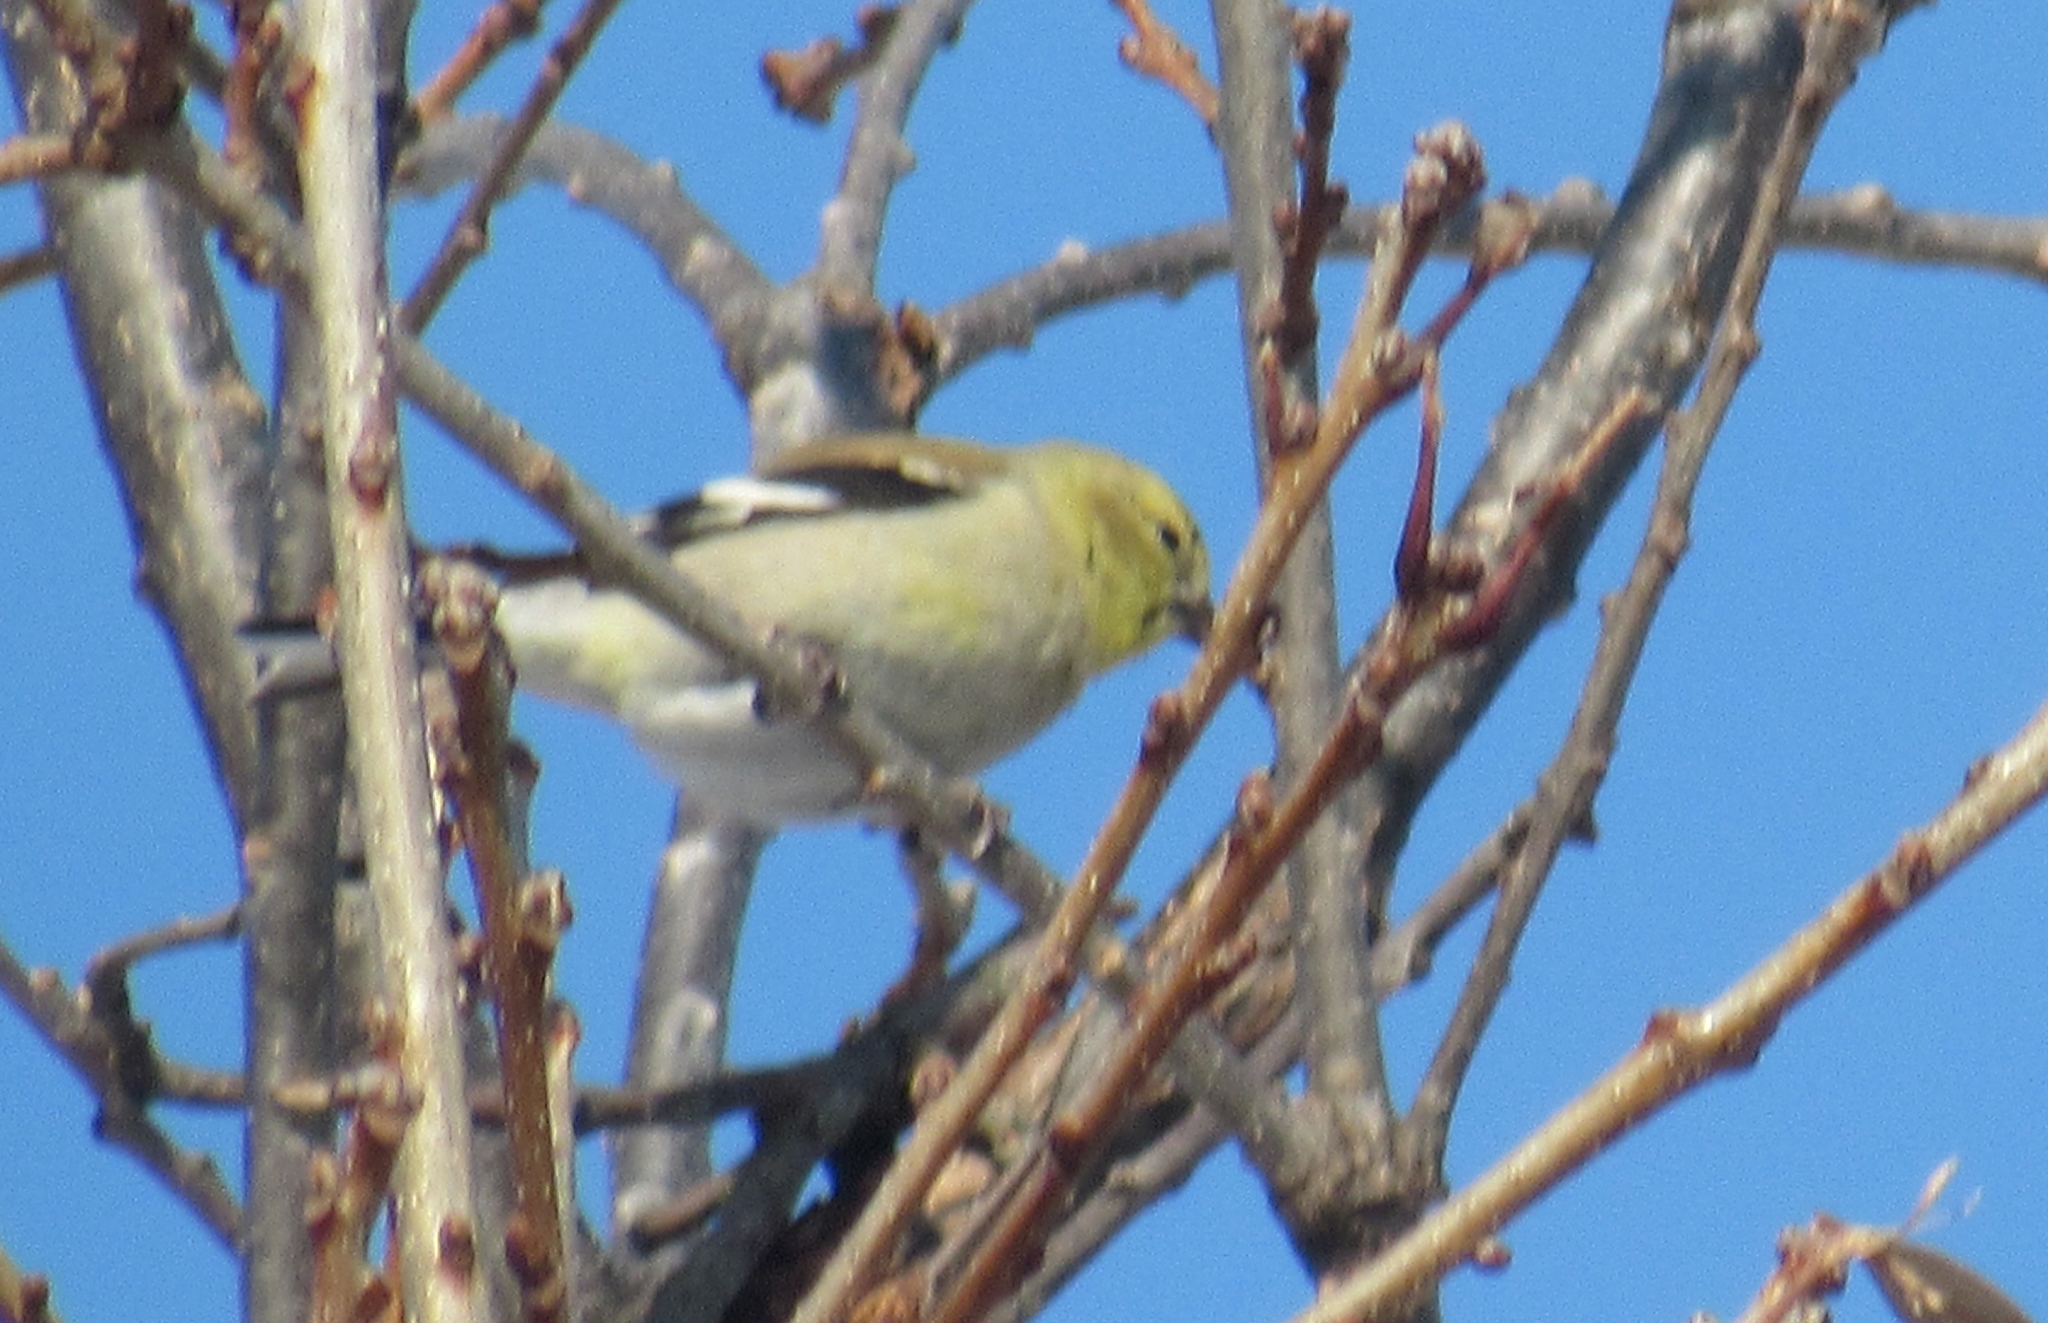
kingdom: Animalia
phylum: Chordata
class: Aves
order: Passeriformes
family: Fringillidae
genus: Spinus
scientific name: Spinus tristis
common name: American goldfinch
